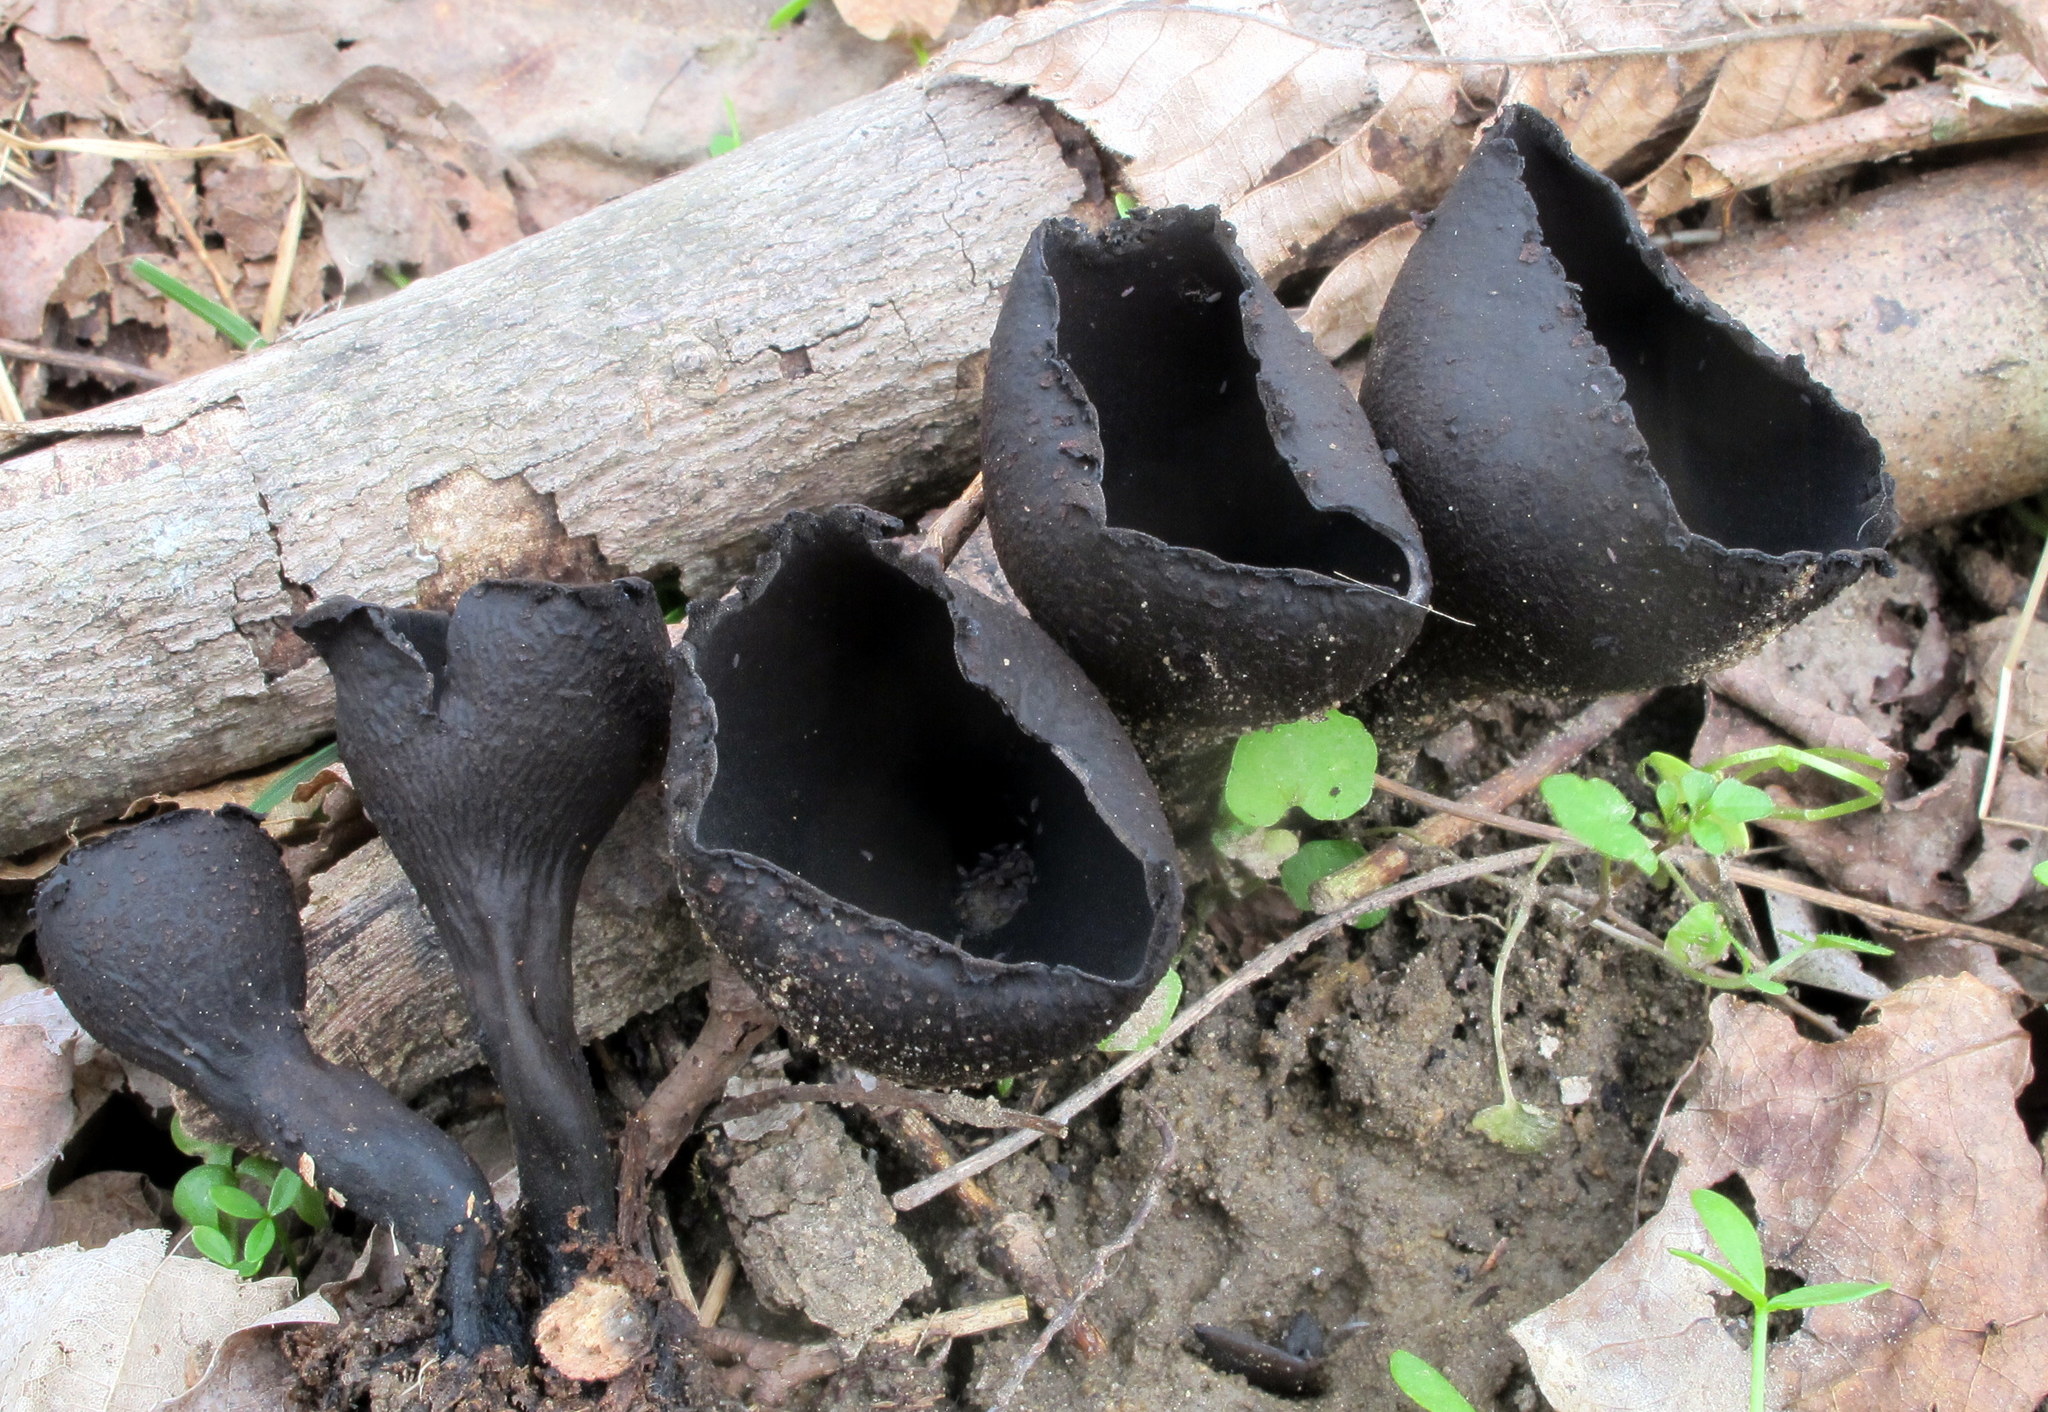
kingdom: Fungi
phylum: Ascomycota
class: Pezizomycetes
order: Pezizales
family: Sarcosomataceae
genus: Urnula
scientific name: Urnula craterium
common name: Devil's urn
